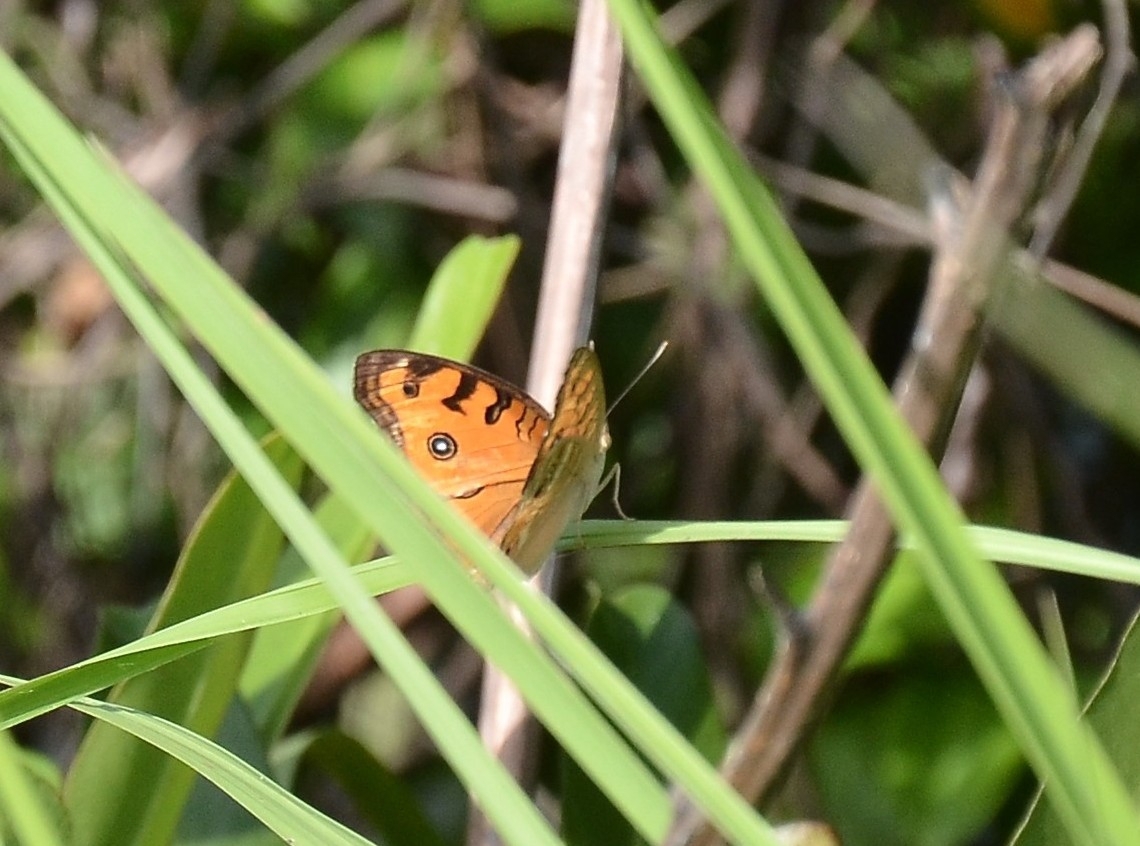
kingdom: Animalia
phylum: Arthropoda
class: Insecta
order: Lepidoptera
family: Nymphalidae
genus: Junonia
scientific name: Junonia almana
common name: Peacock pansy
